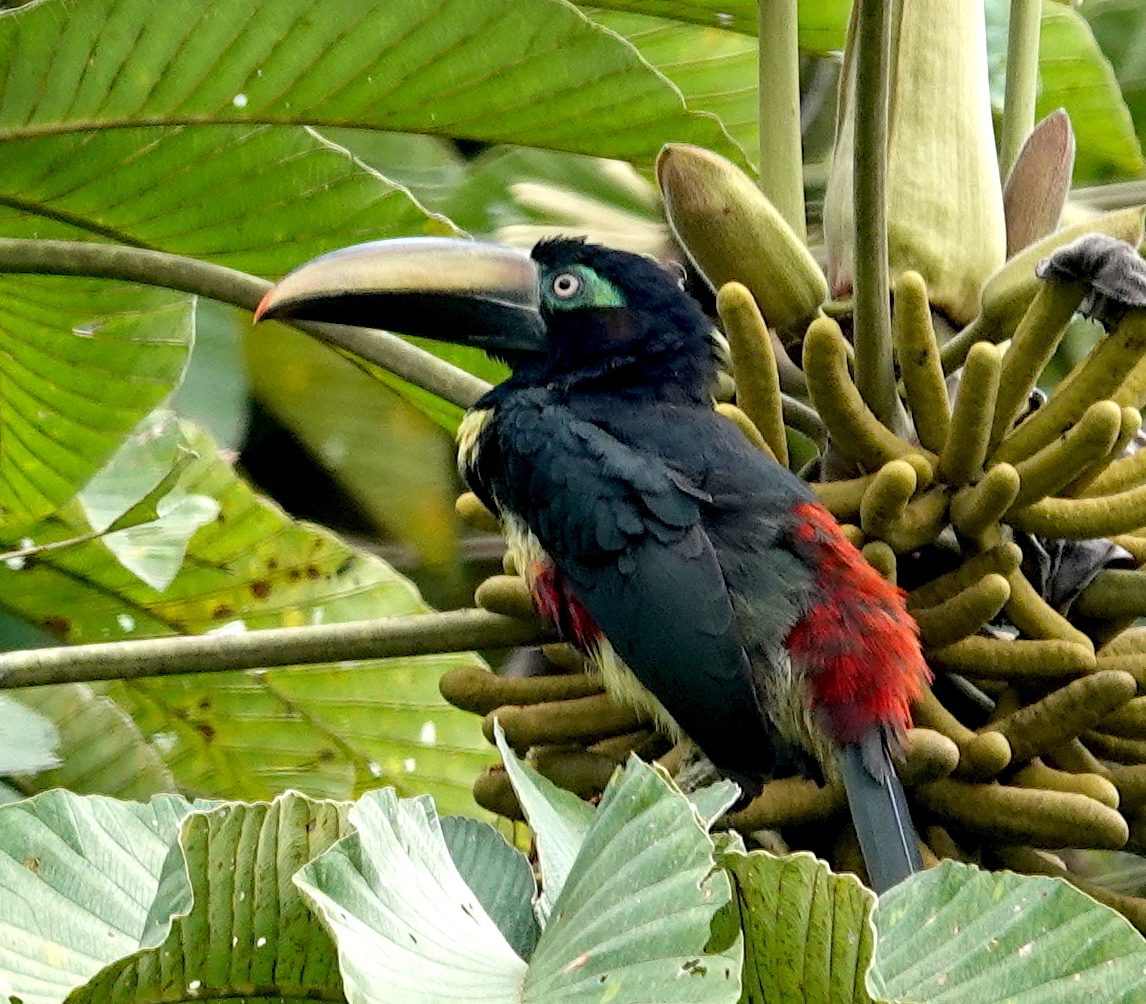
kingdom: Animalia
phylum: Chordata
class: Aves
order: Piciformes
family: Ramphastidae
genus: Pteroglossus
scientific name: Pteroglossus pluricinctus
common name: Many-banded aracari
